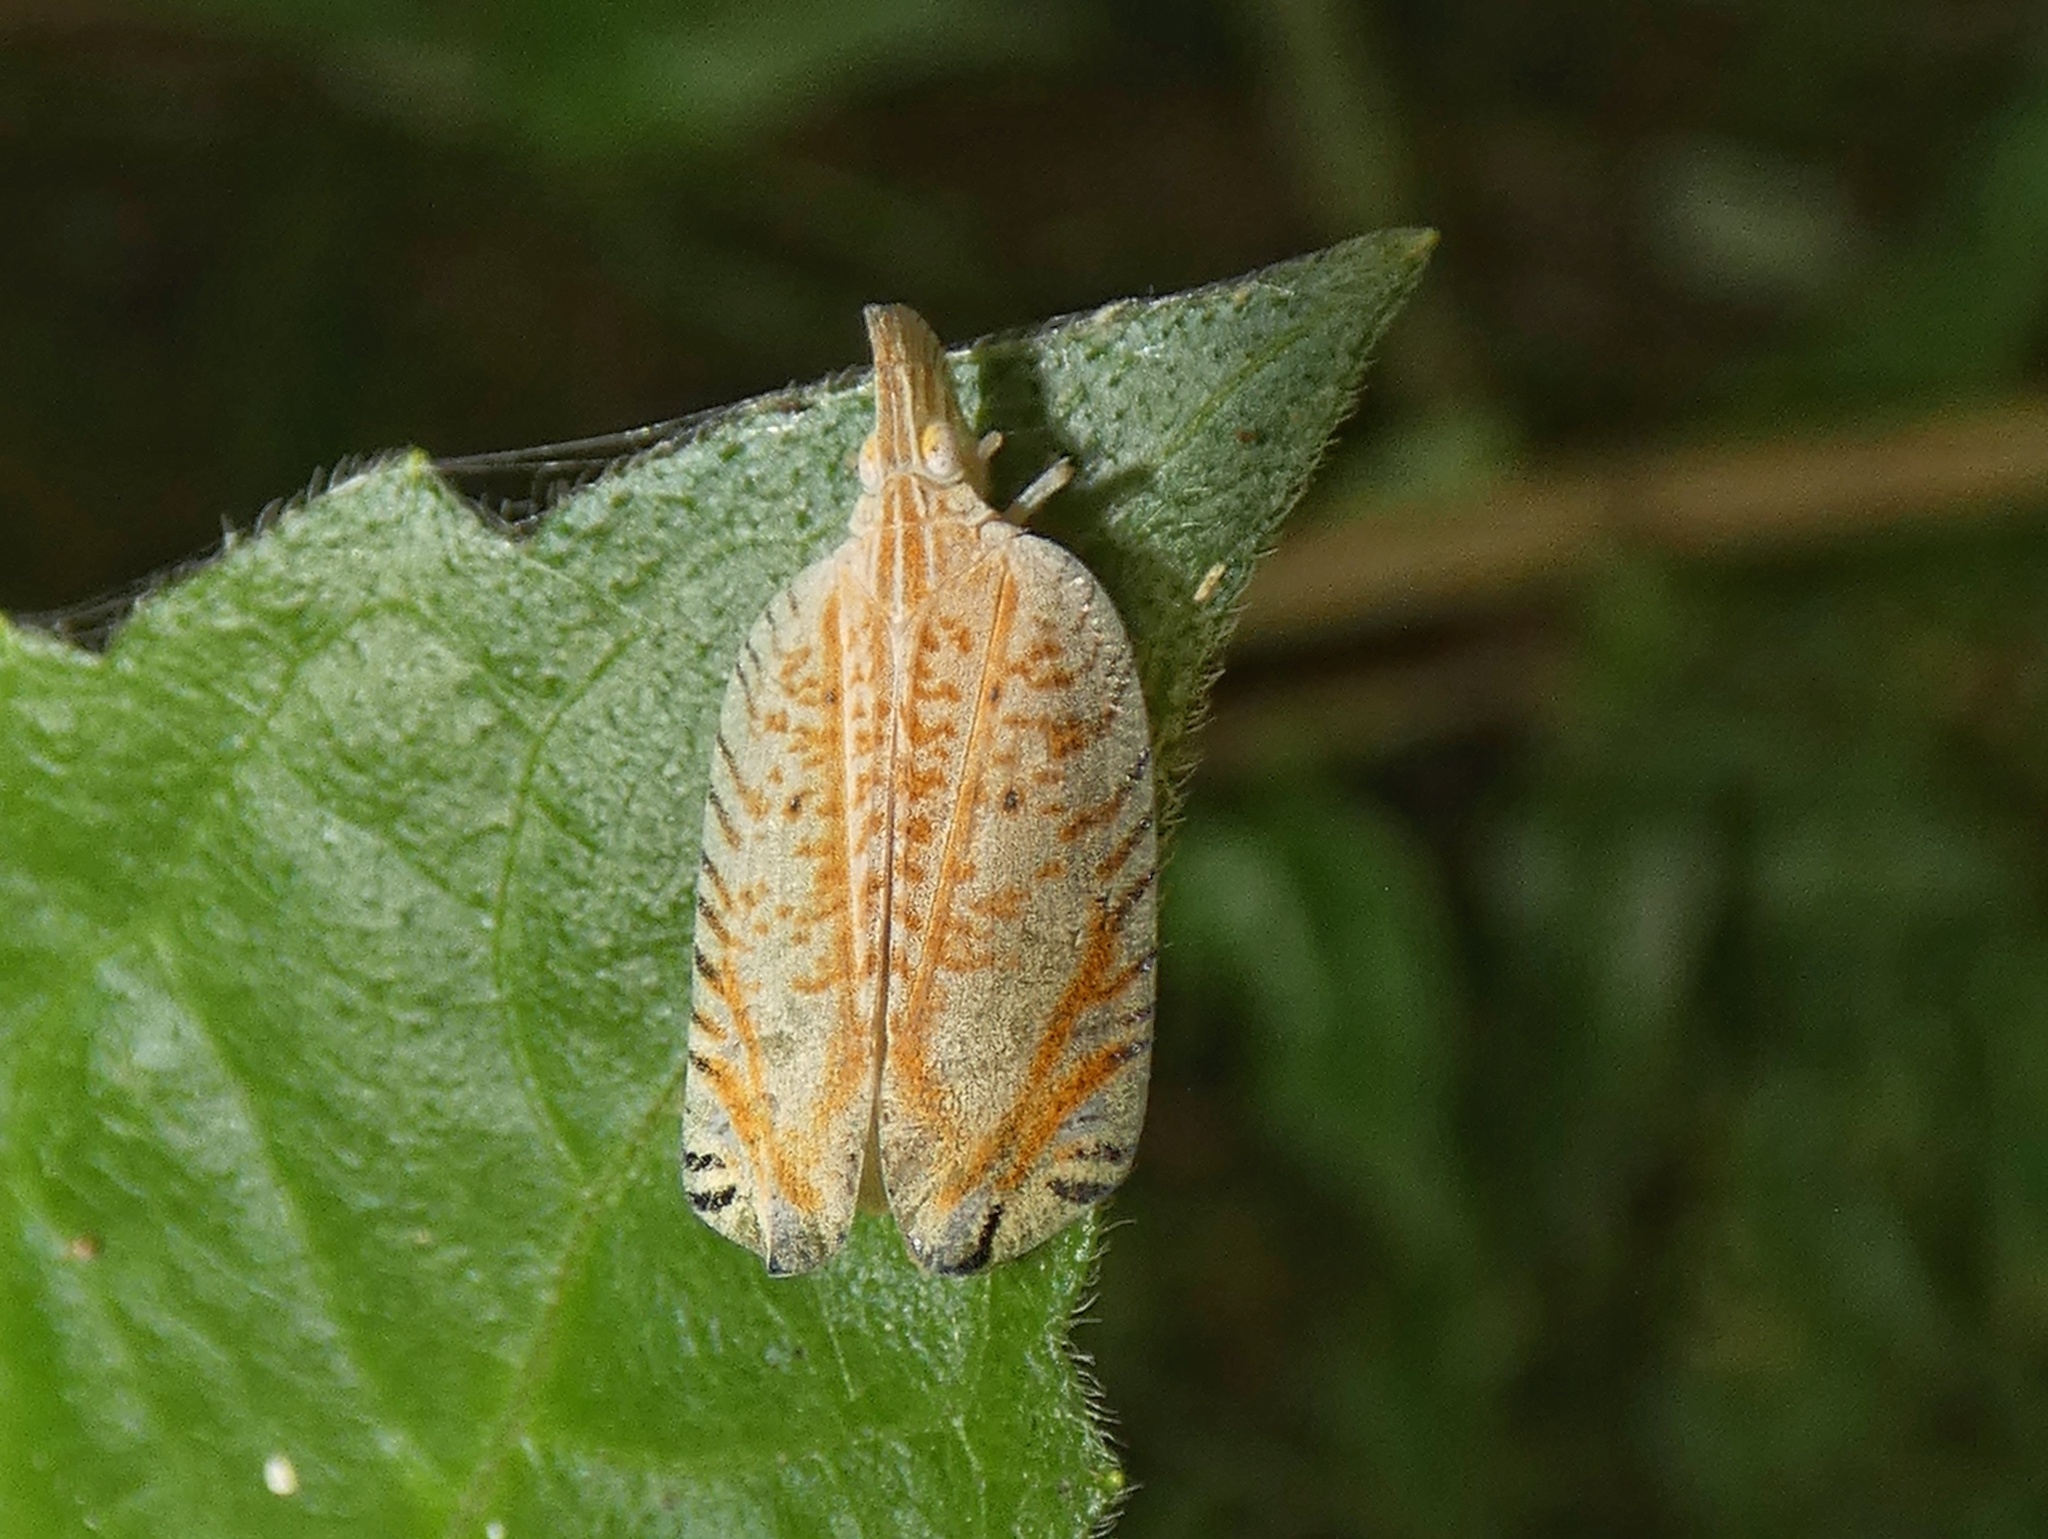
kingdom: Animalia
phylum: Arthropoda
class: Insecta
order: Hemiptera
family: Lophopidae
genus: Lophops
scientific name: Lophops zebra
